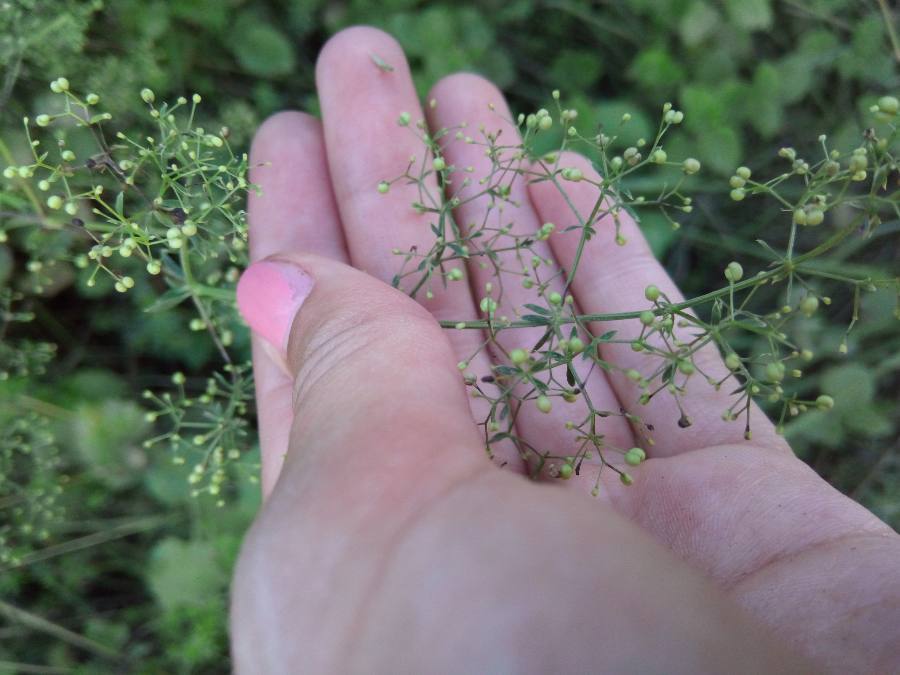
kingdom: Plantae
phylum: Tracheophyta
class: Magnoliopsida
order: Gentianales
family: Rubiaceae
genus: Galium
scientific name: Galium mollugo
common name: Hedge bedstraw
